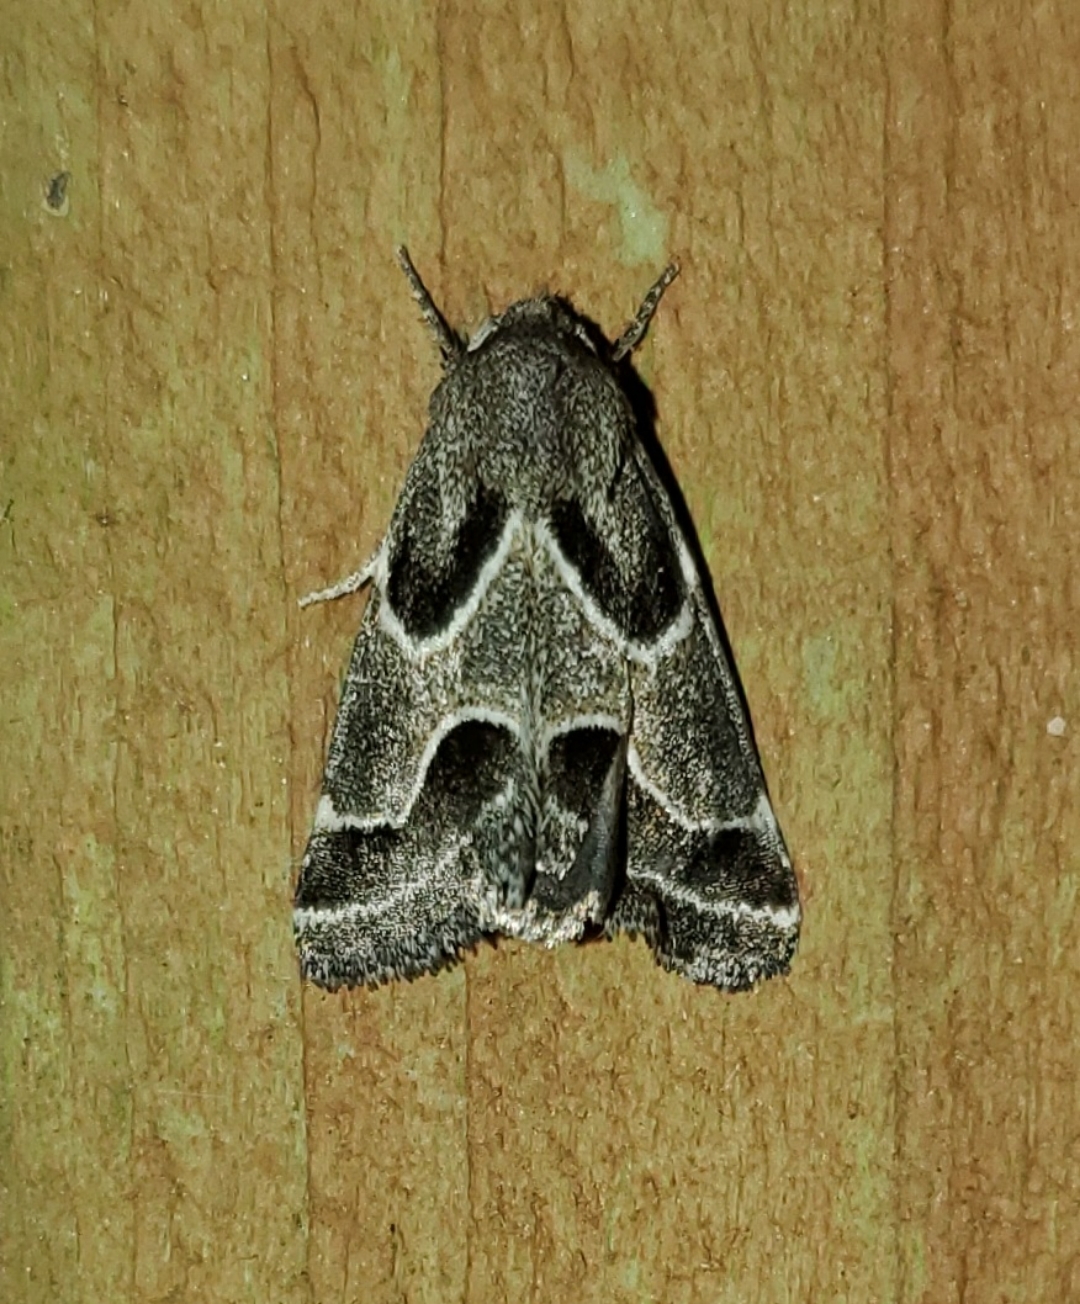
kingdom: Animalia
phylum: Arthropoda
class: Insecta
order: Lepidoptera
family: Noctuidae
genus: Schinia
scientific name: Schinia rivulosa
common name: Scarce meal-moth
